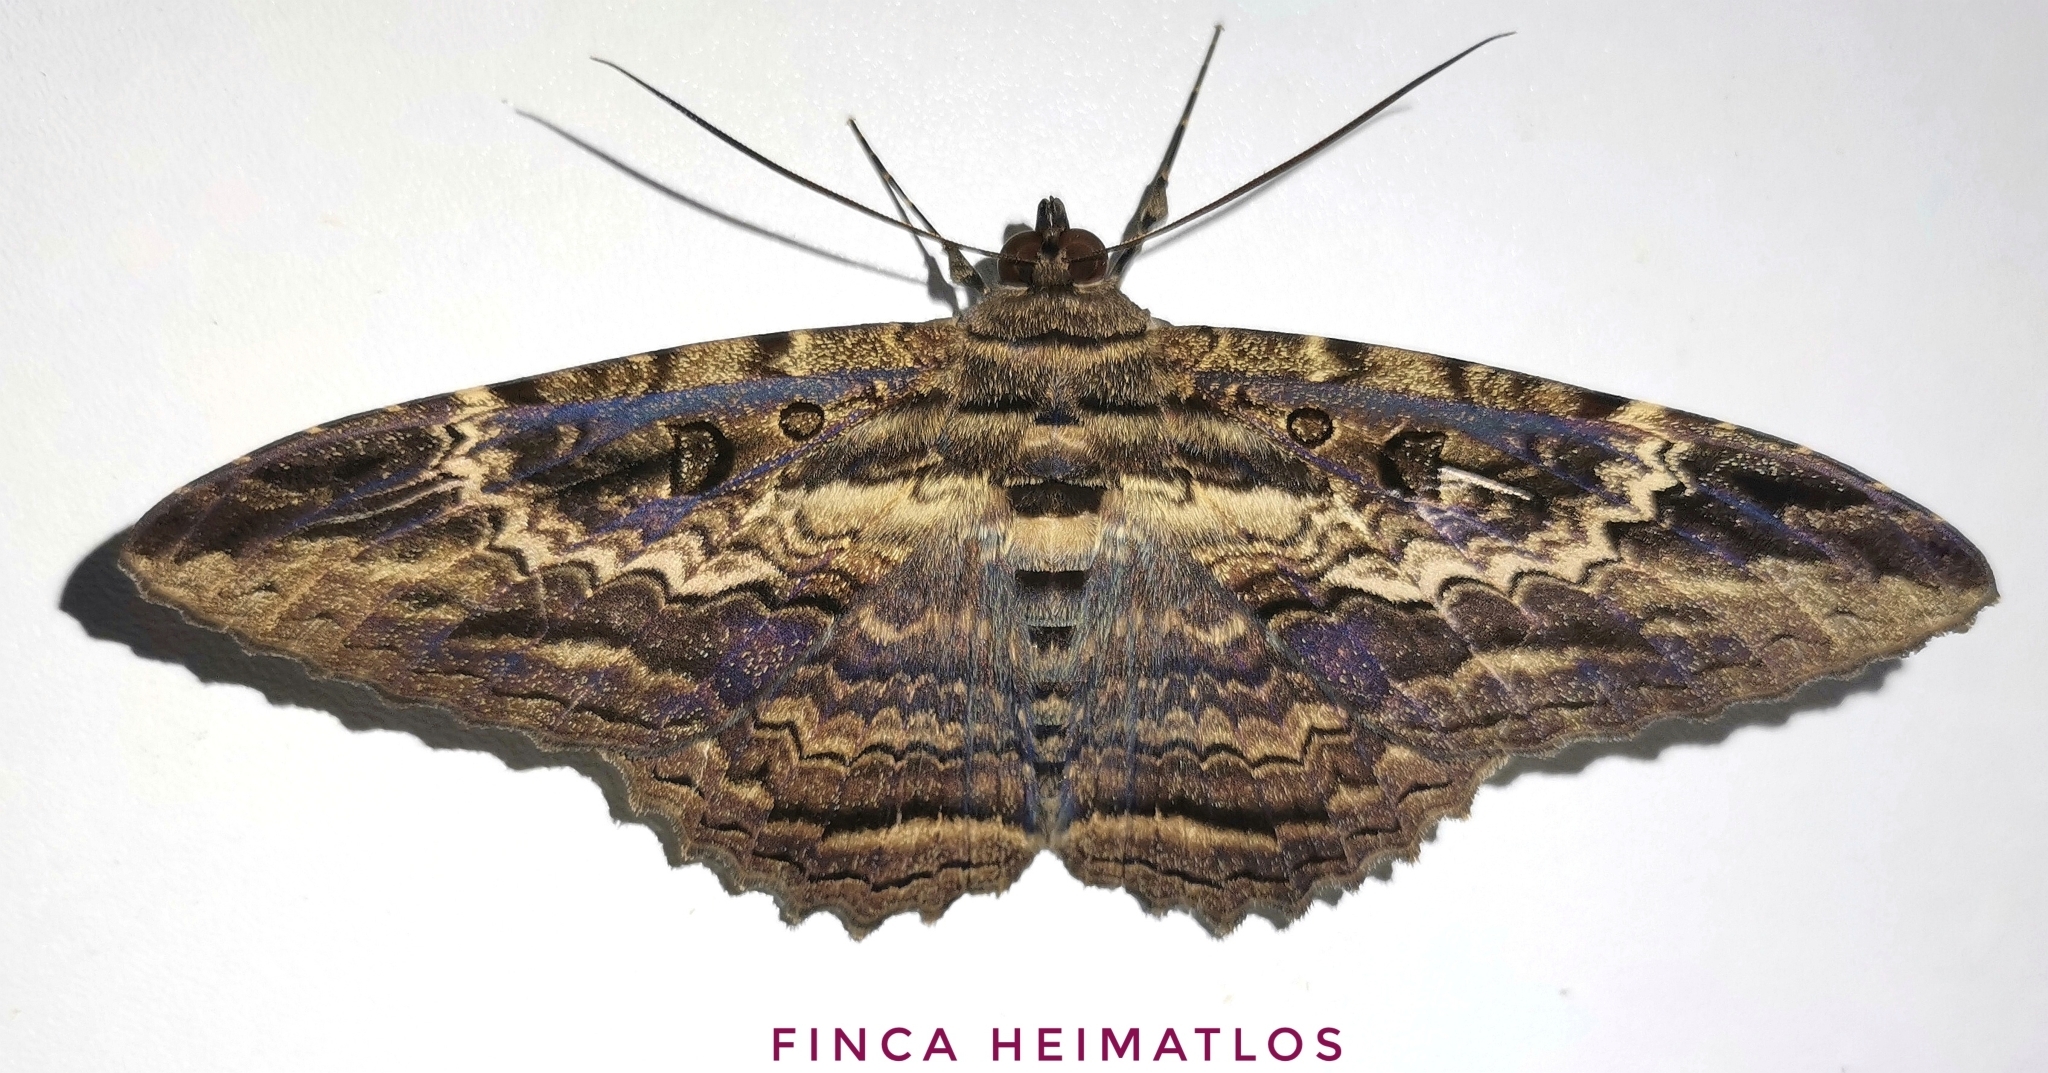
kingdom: Animalia
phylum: Arthropoda
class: Insecta
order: Lepidoptera
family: Erebidae
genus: Feigeria
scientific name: Feigeria buteo
